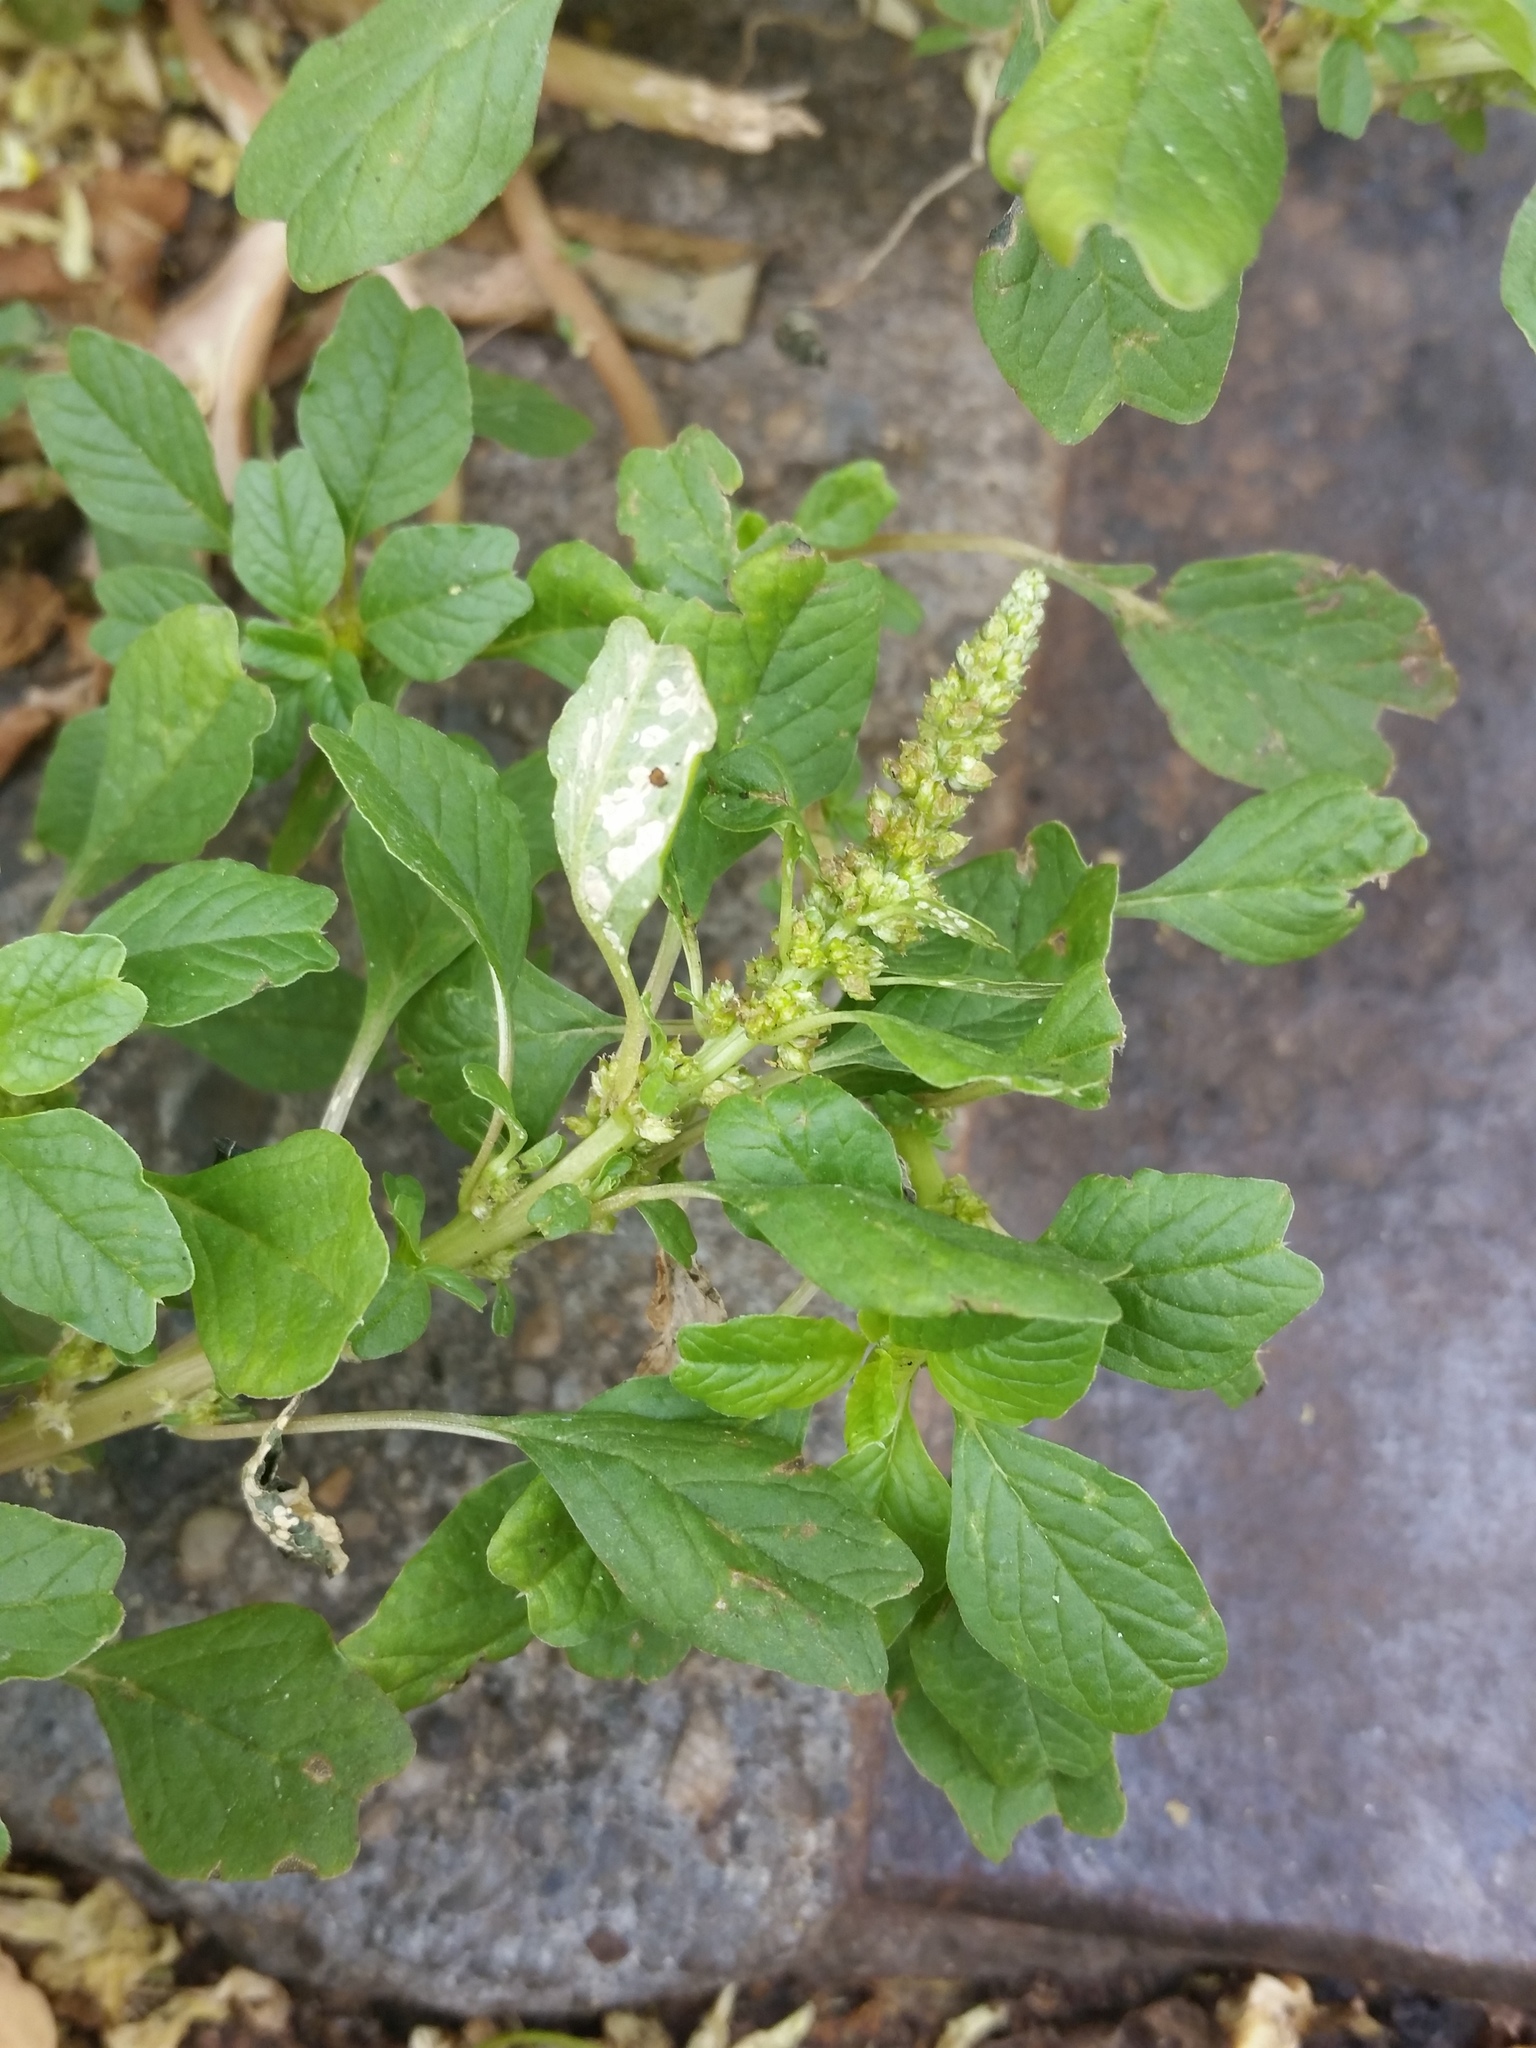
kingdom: Plantae
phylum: Tracheophyta
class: Magnoliopsida
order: Caryophyllales
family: Amaranthaceae
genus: Amaranthus
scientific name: Amaranthus blitum
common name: Purple amaranth
